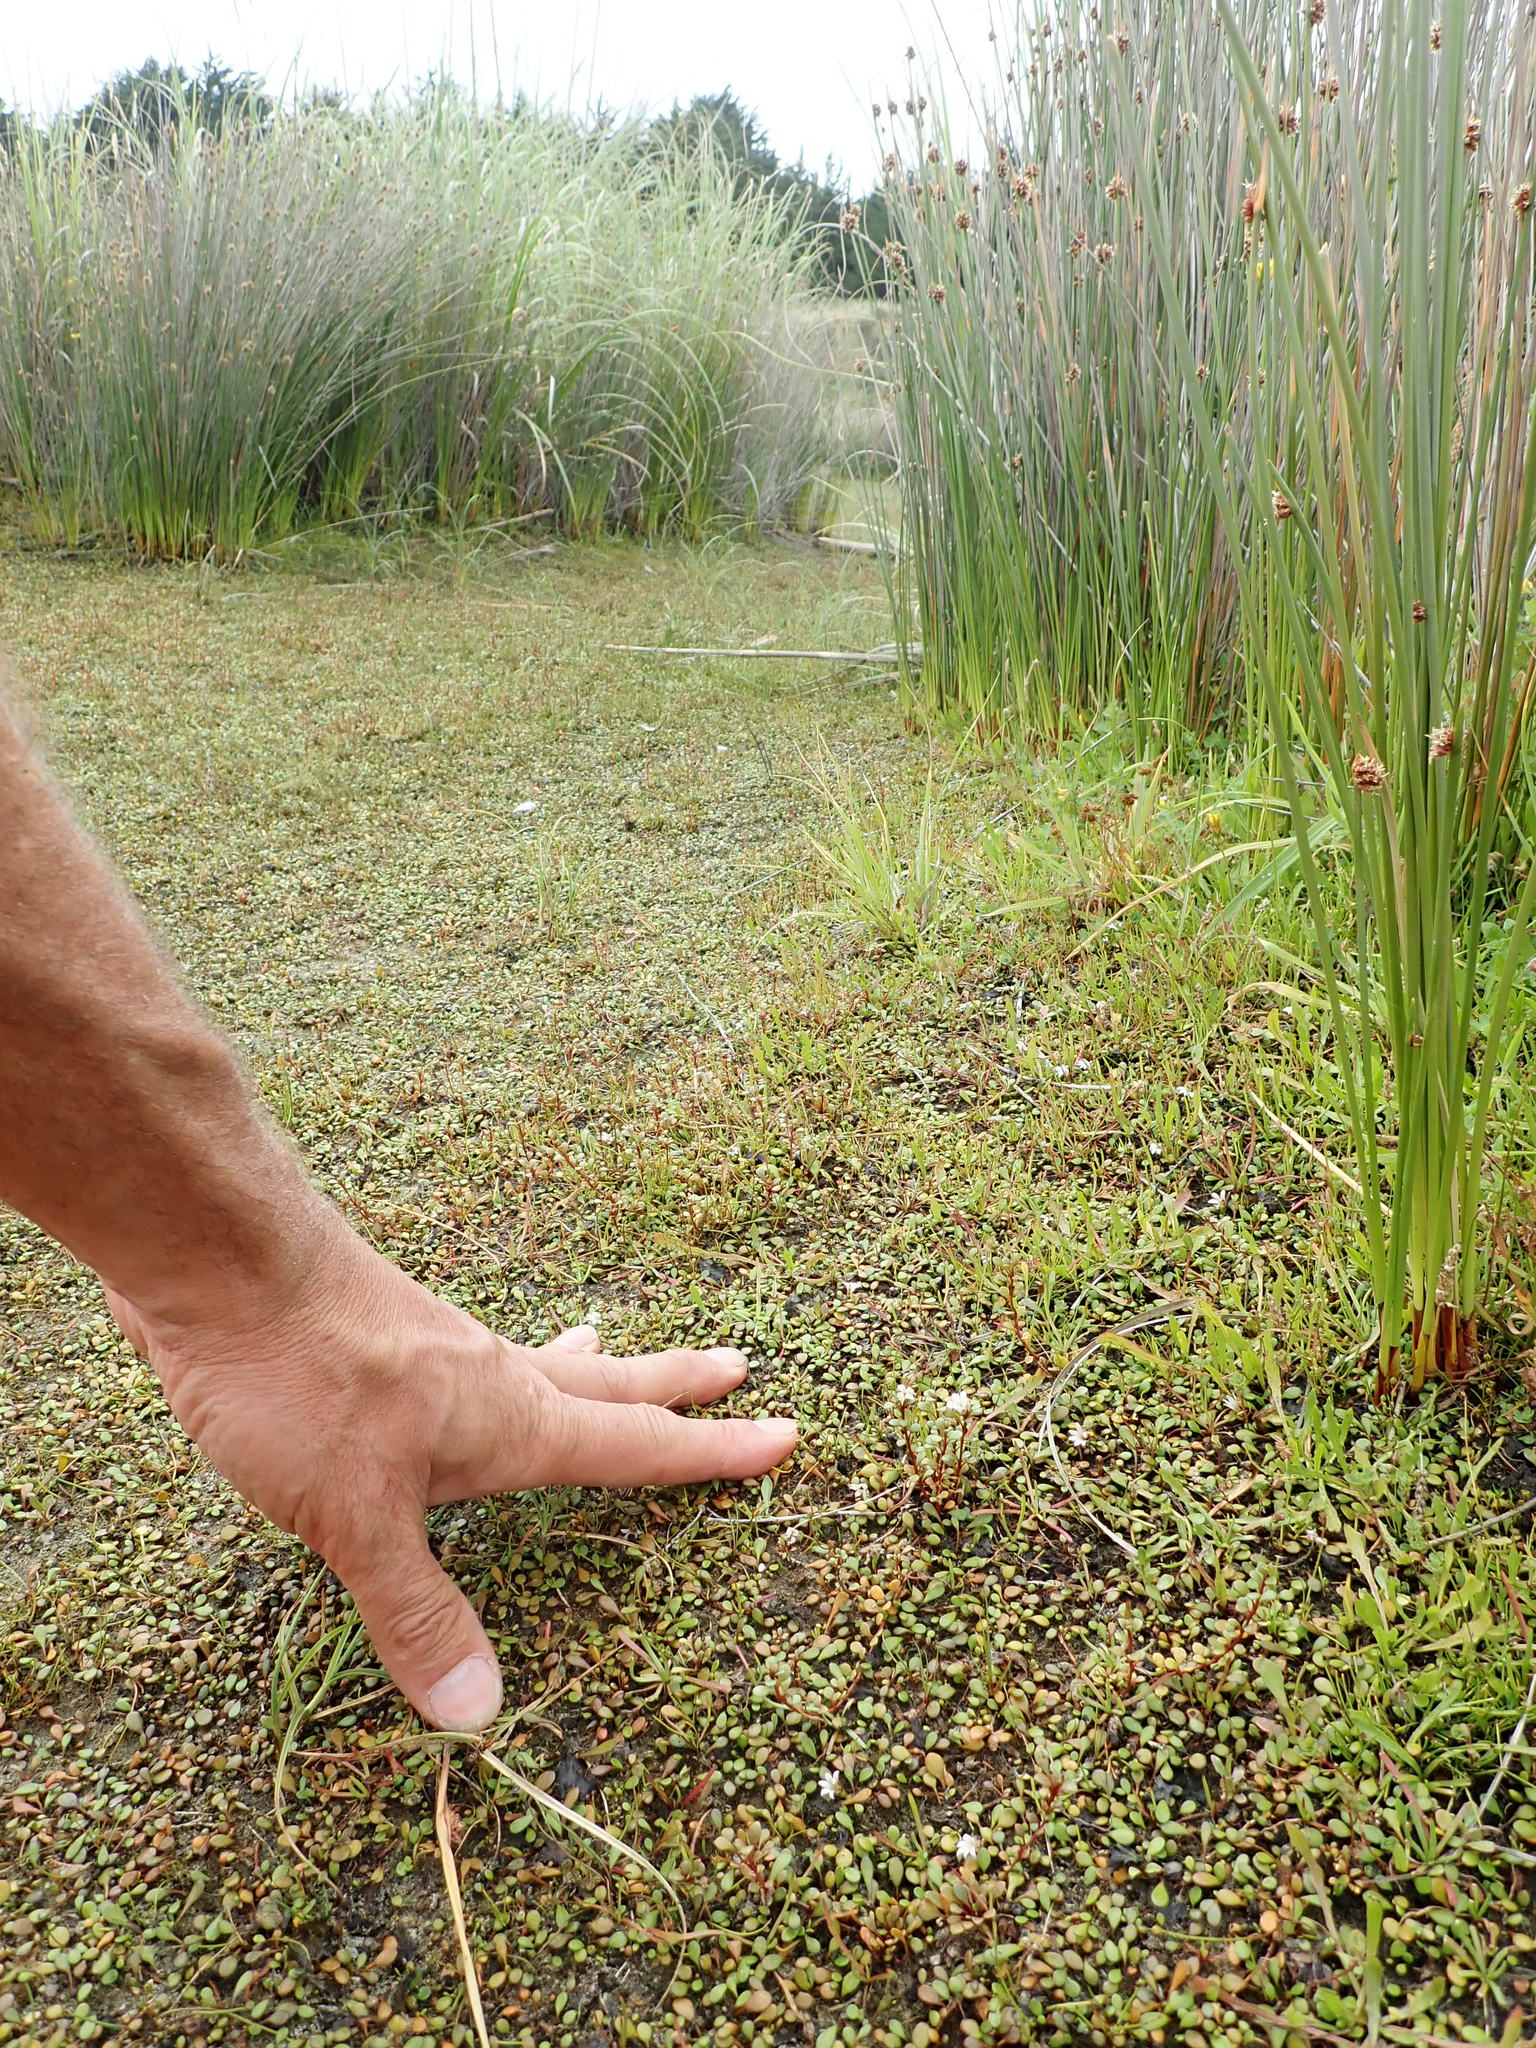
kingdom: Plantae
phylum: Tracheophyta
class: Magnoliopsida
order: Ericales
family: Primulaceae
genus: Samolus
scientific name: Samolus repens
